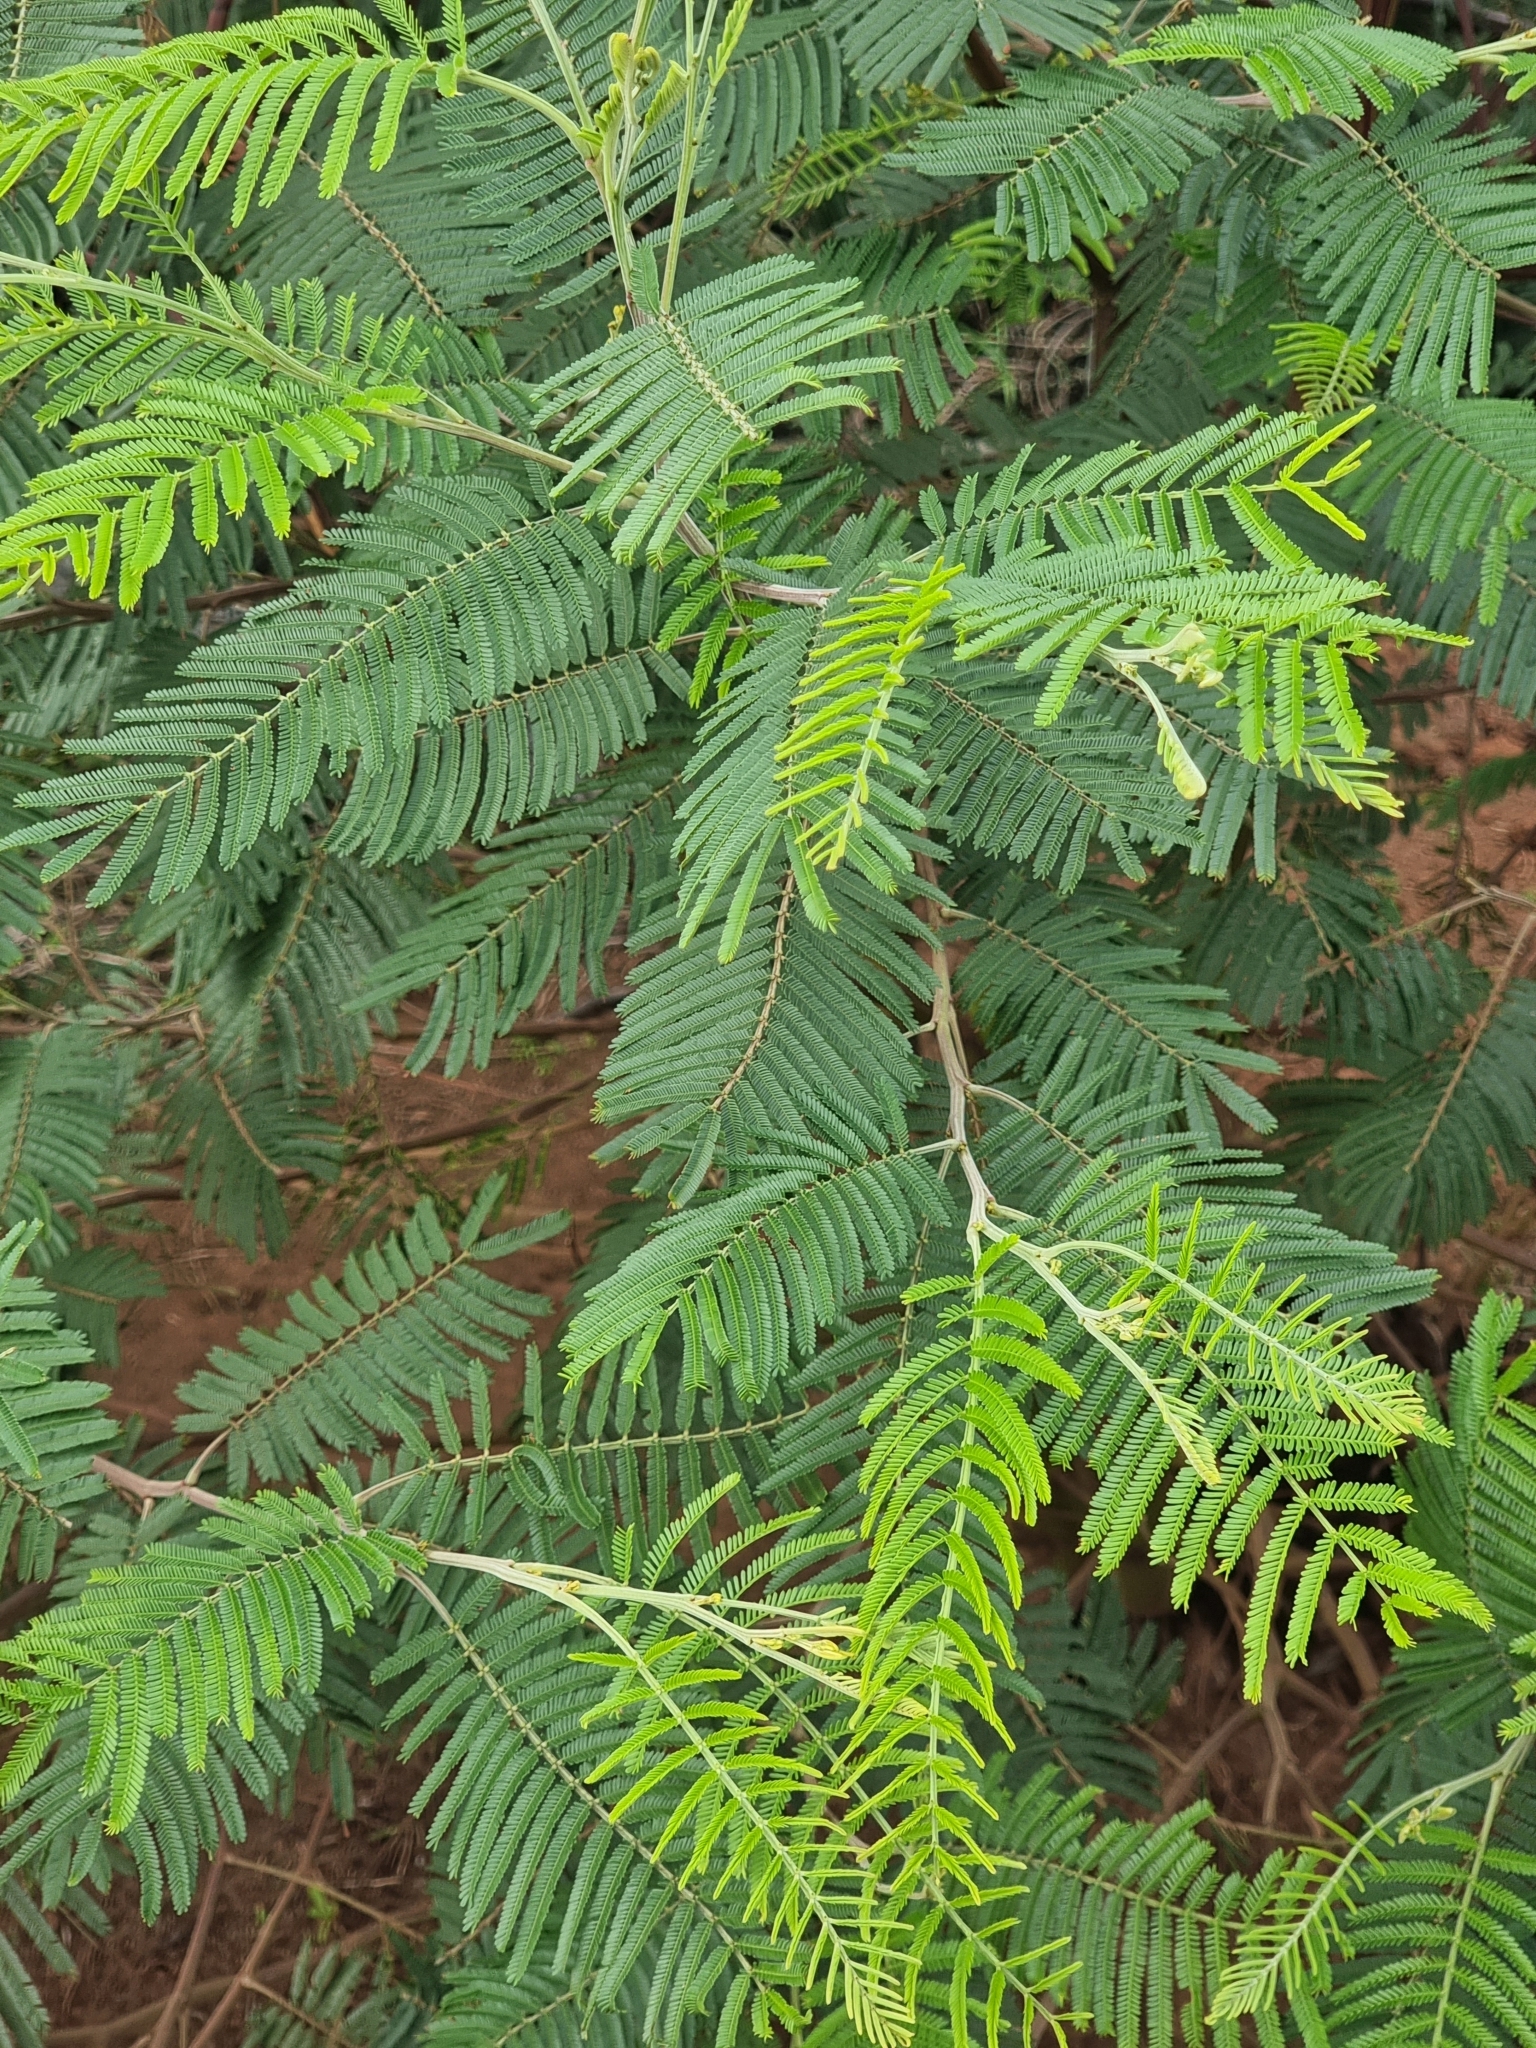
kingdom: Plantae
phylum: Tracheophyta
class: Magnoliopsida
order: Fabales
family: Fabaceae
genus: Acacia
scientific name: Acacia mearnsii
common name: Black wattle
